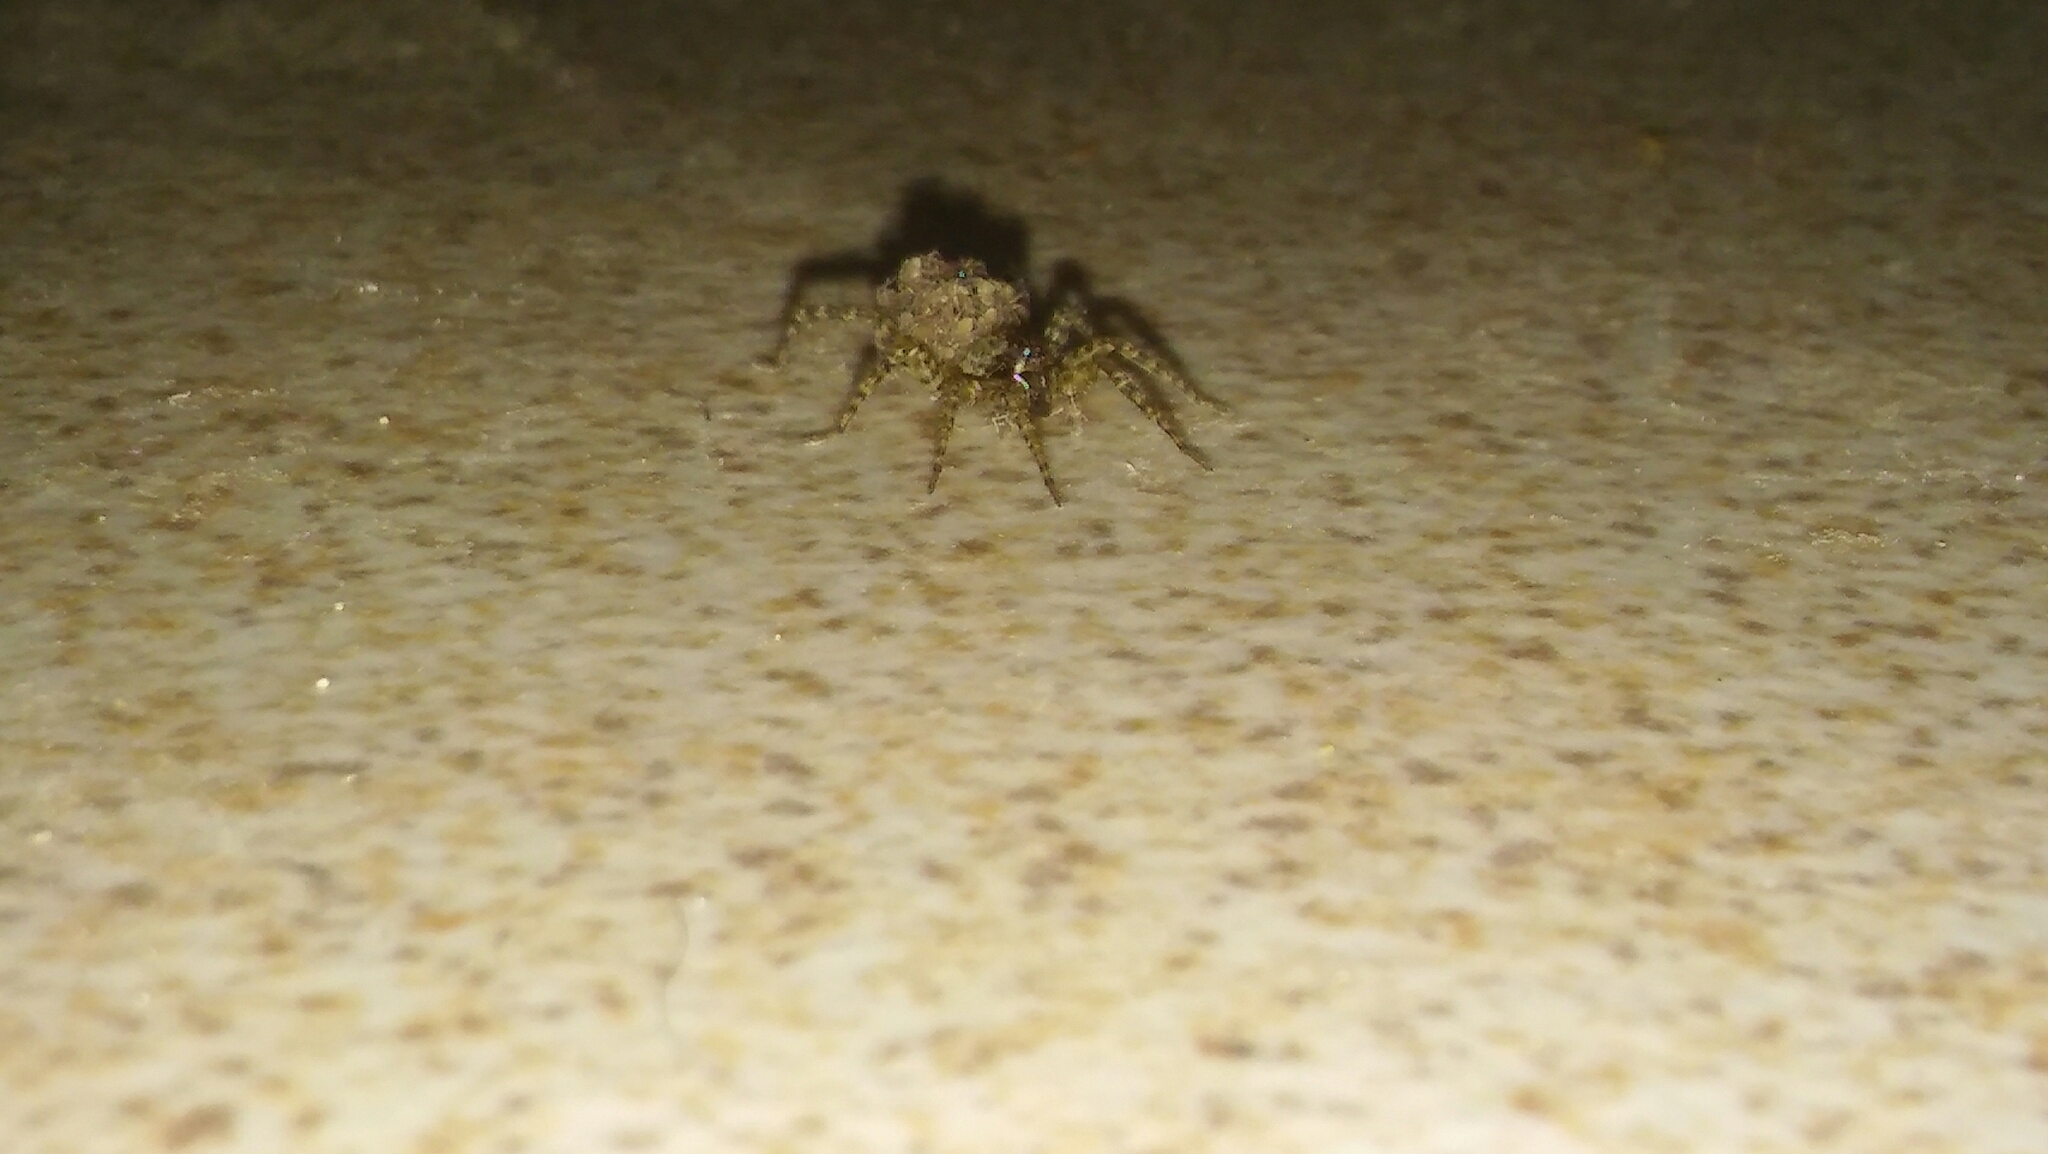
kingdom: Animalia
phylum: Arthropoda
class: Arachnida
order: Araneae
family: Lycosidae
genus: Paratrochosina
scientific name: Paratrochosina amica
